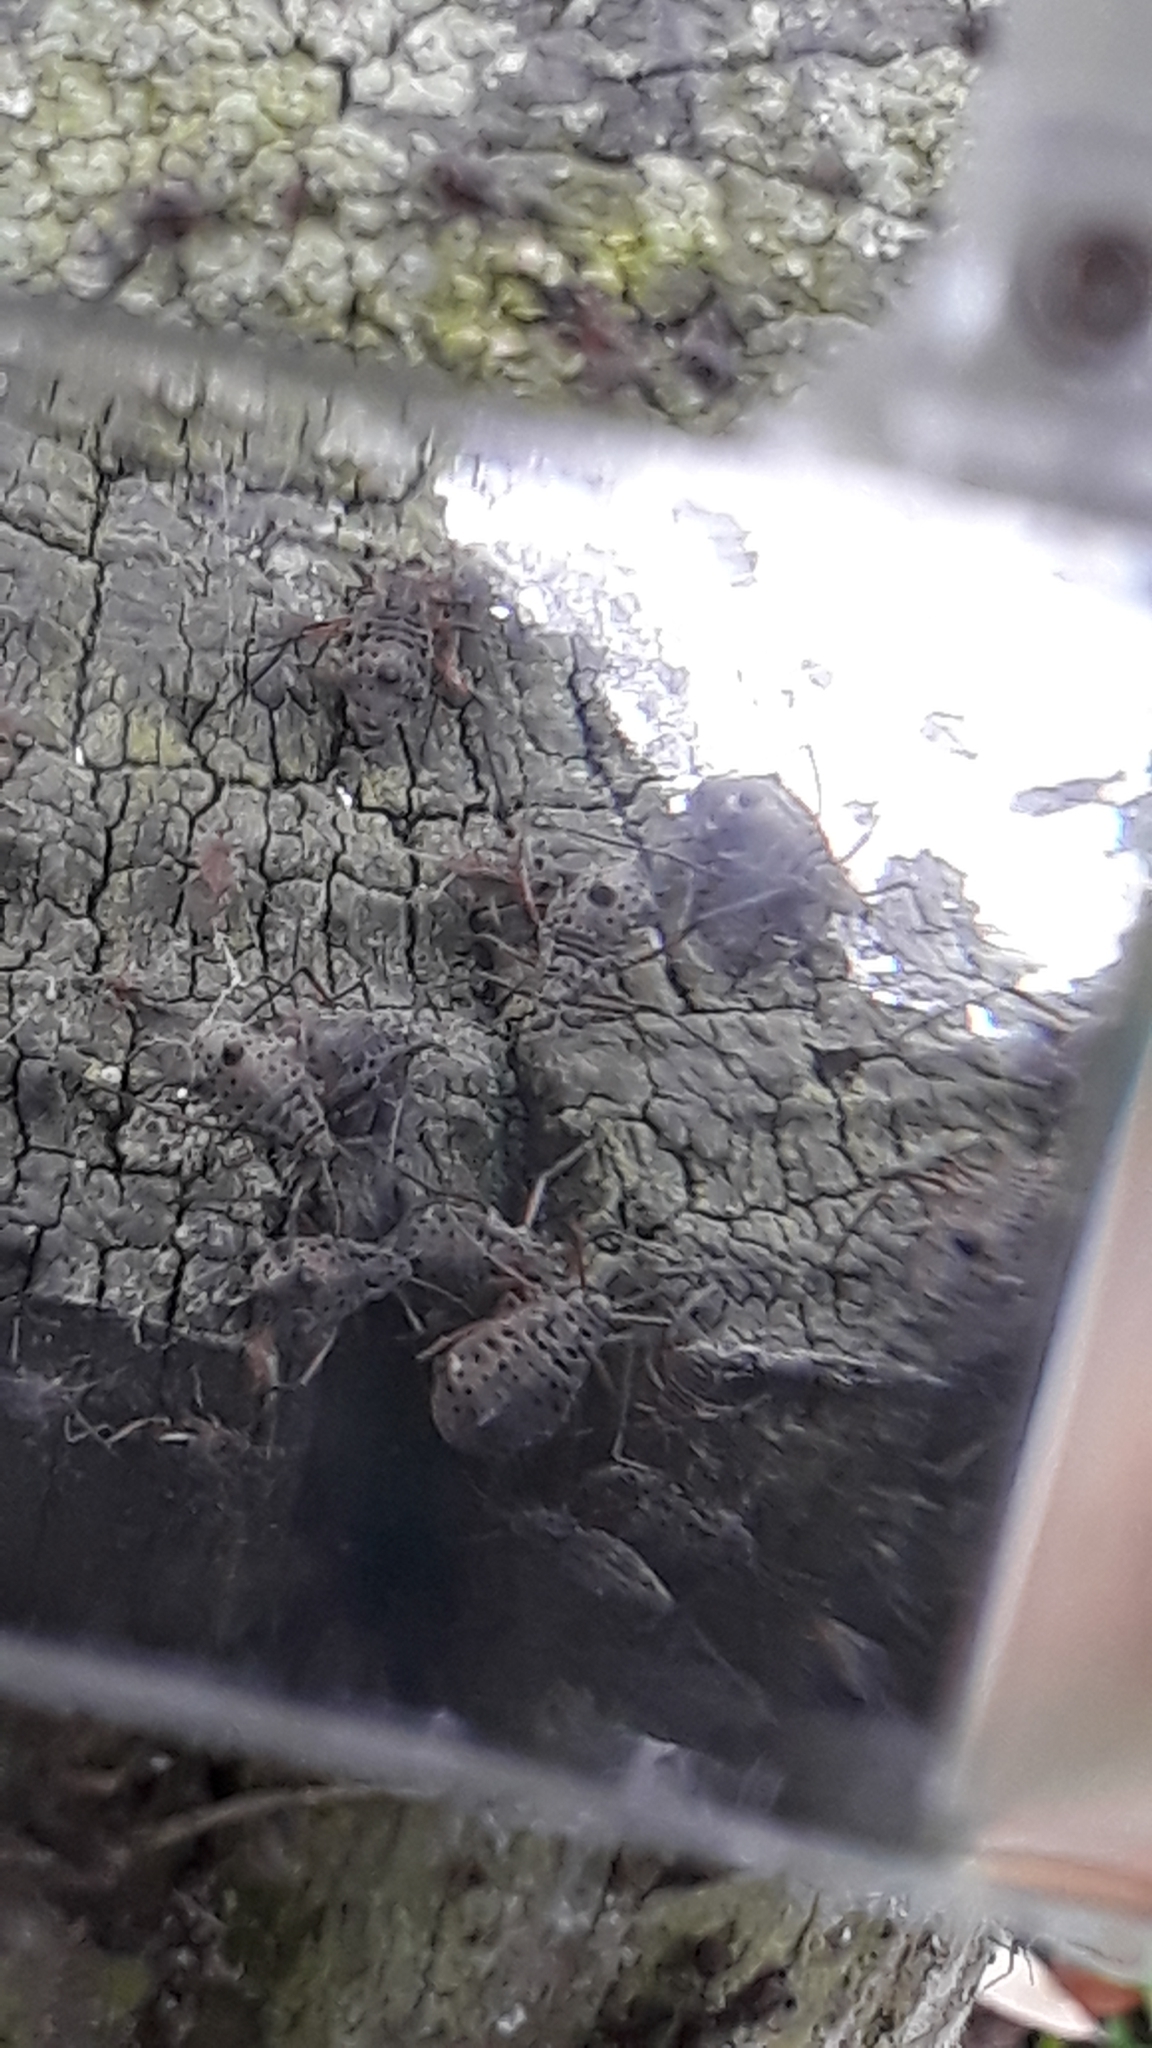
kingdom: Animalia
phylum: Arthropoda
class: Insecta
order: Hemiptera
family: Aphididae
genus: Tuberolachnus
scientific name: Tuberolachnus salignus
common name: Giant willow aphid
